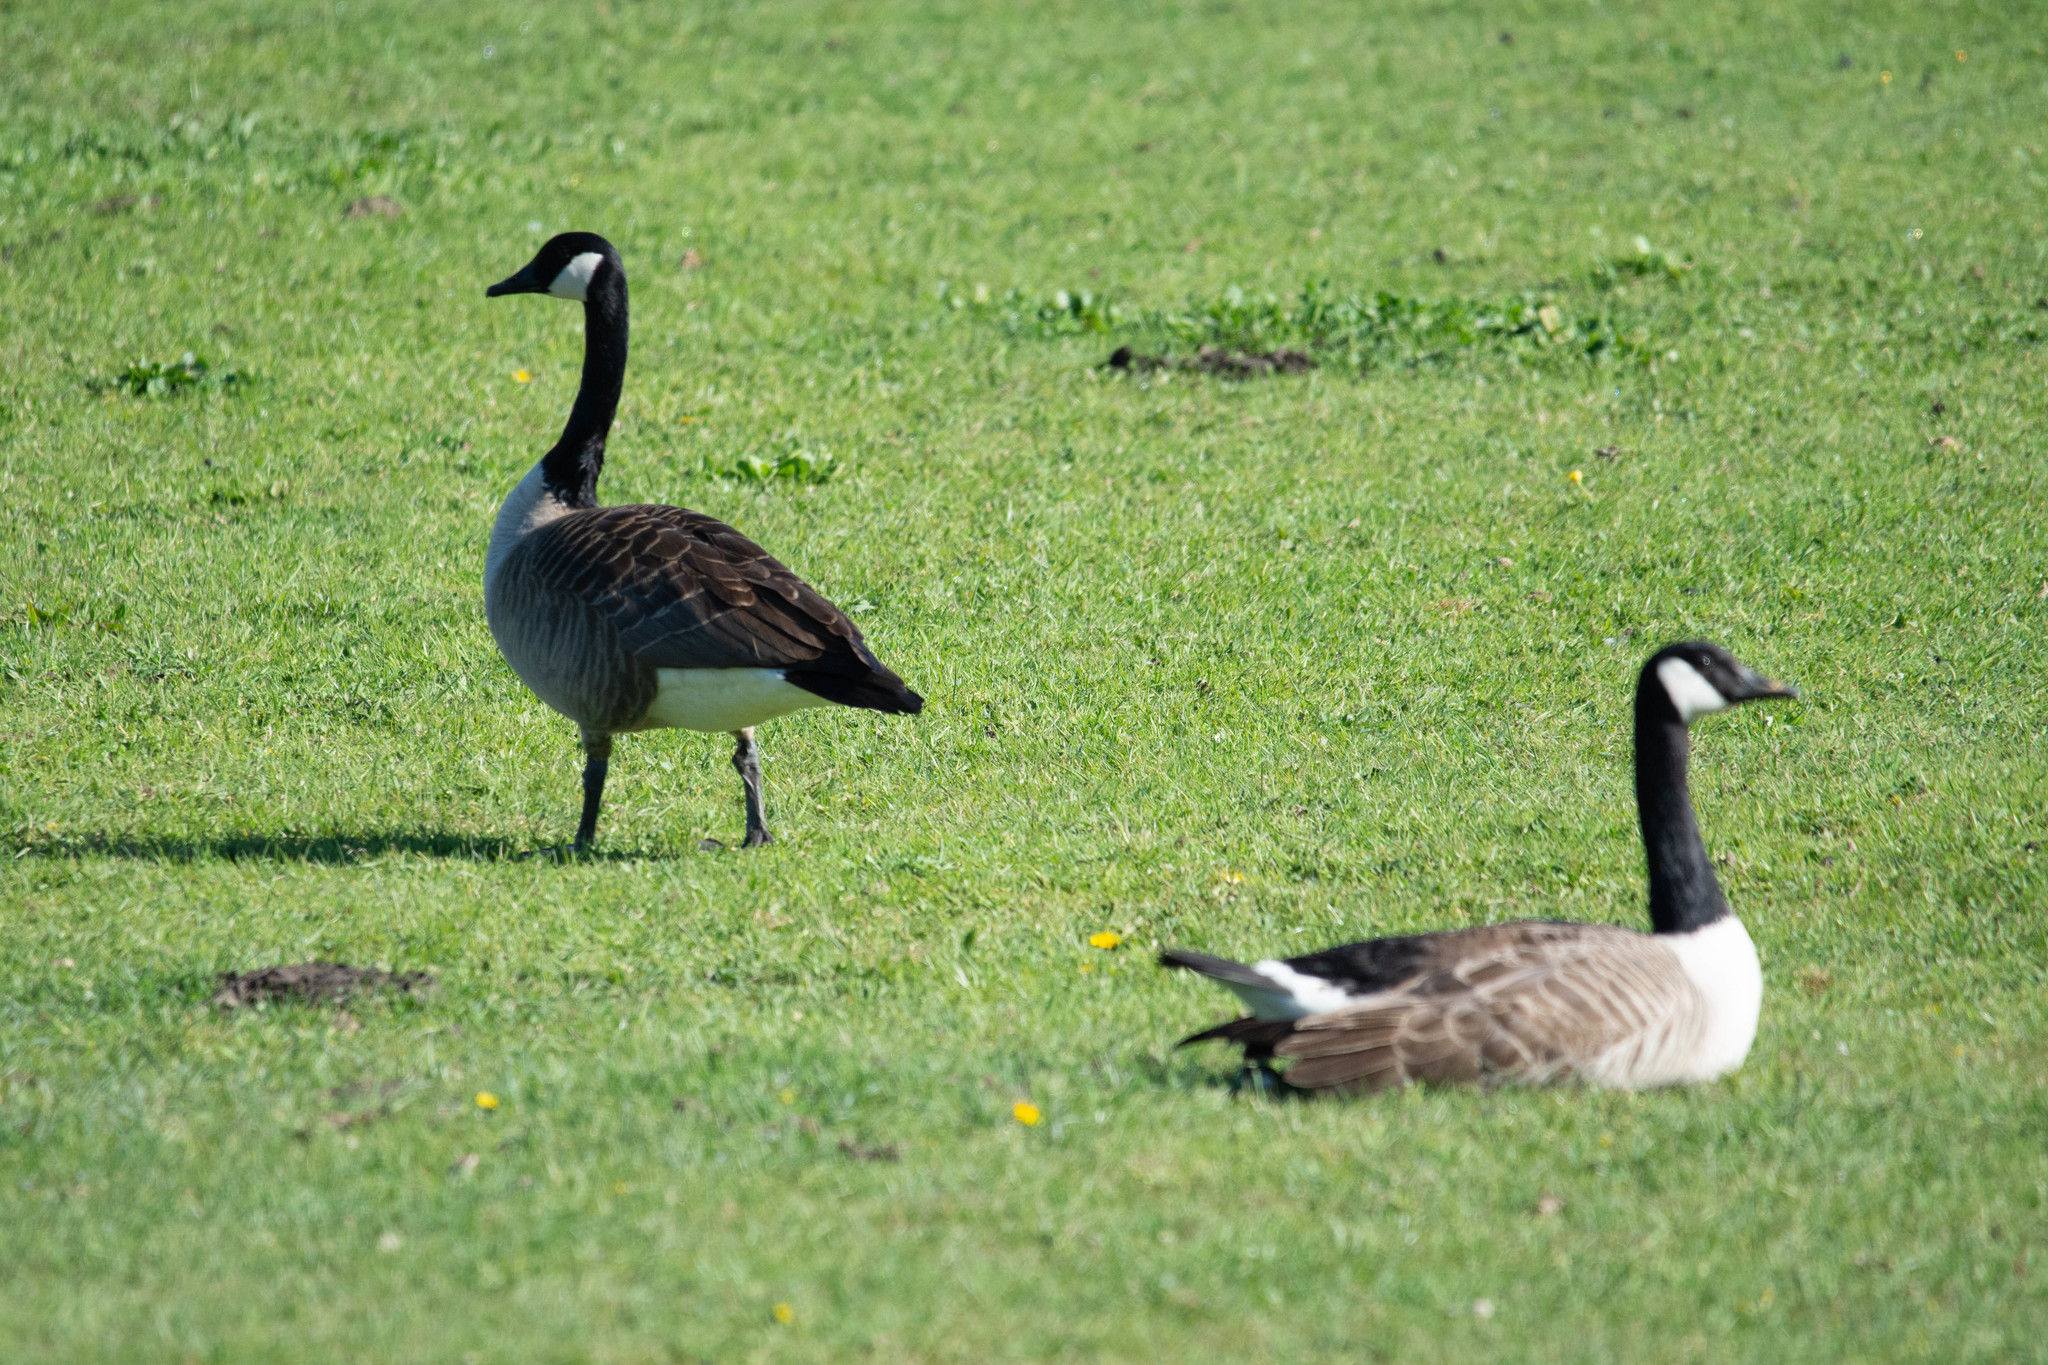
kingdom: Animalia
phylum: Chordata
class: Aves
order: Anseriformes
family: Anatidae
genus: Branta
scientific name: Branta canadensis
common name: Canada goose
